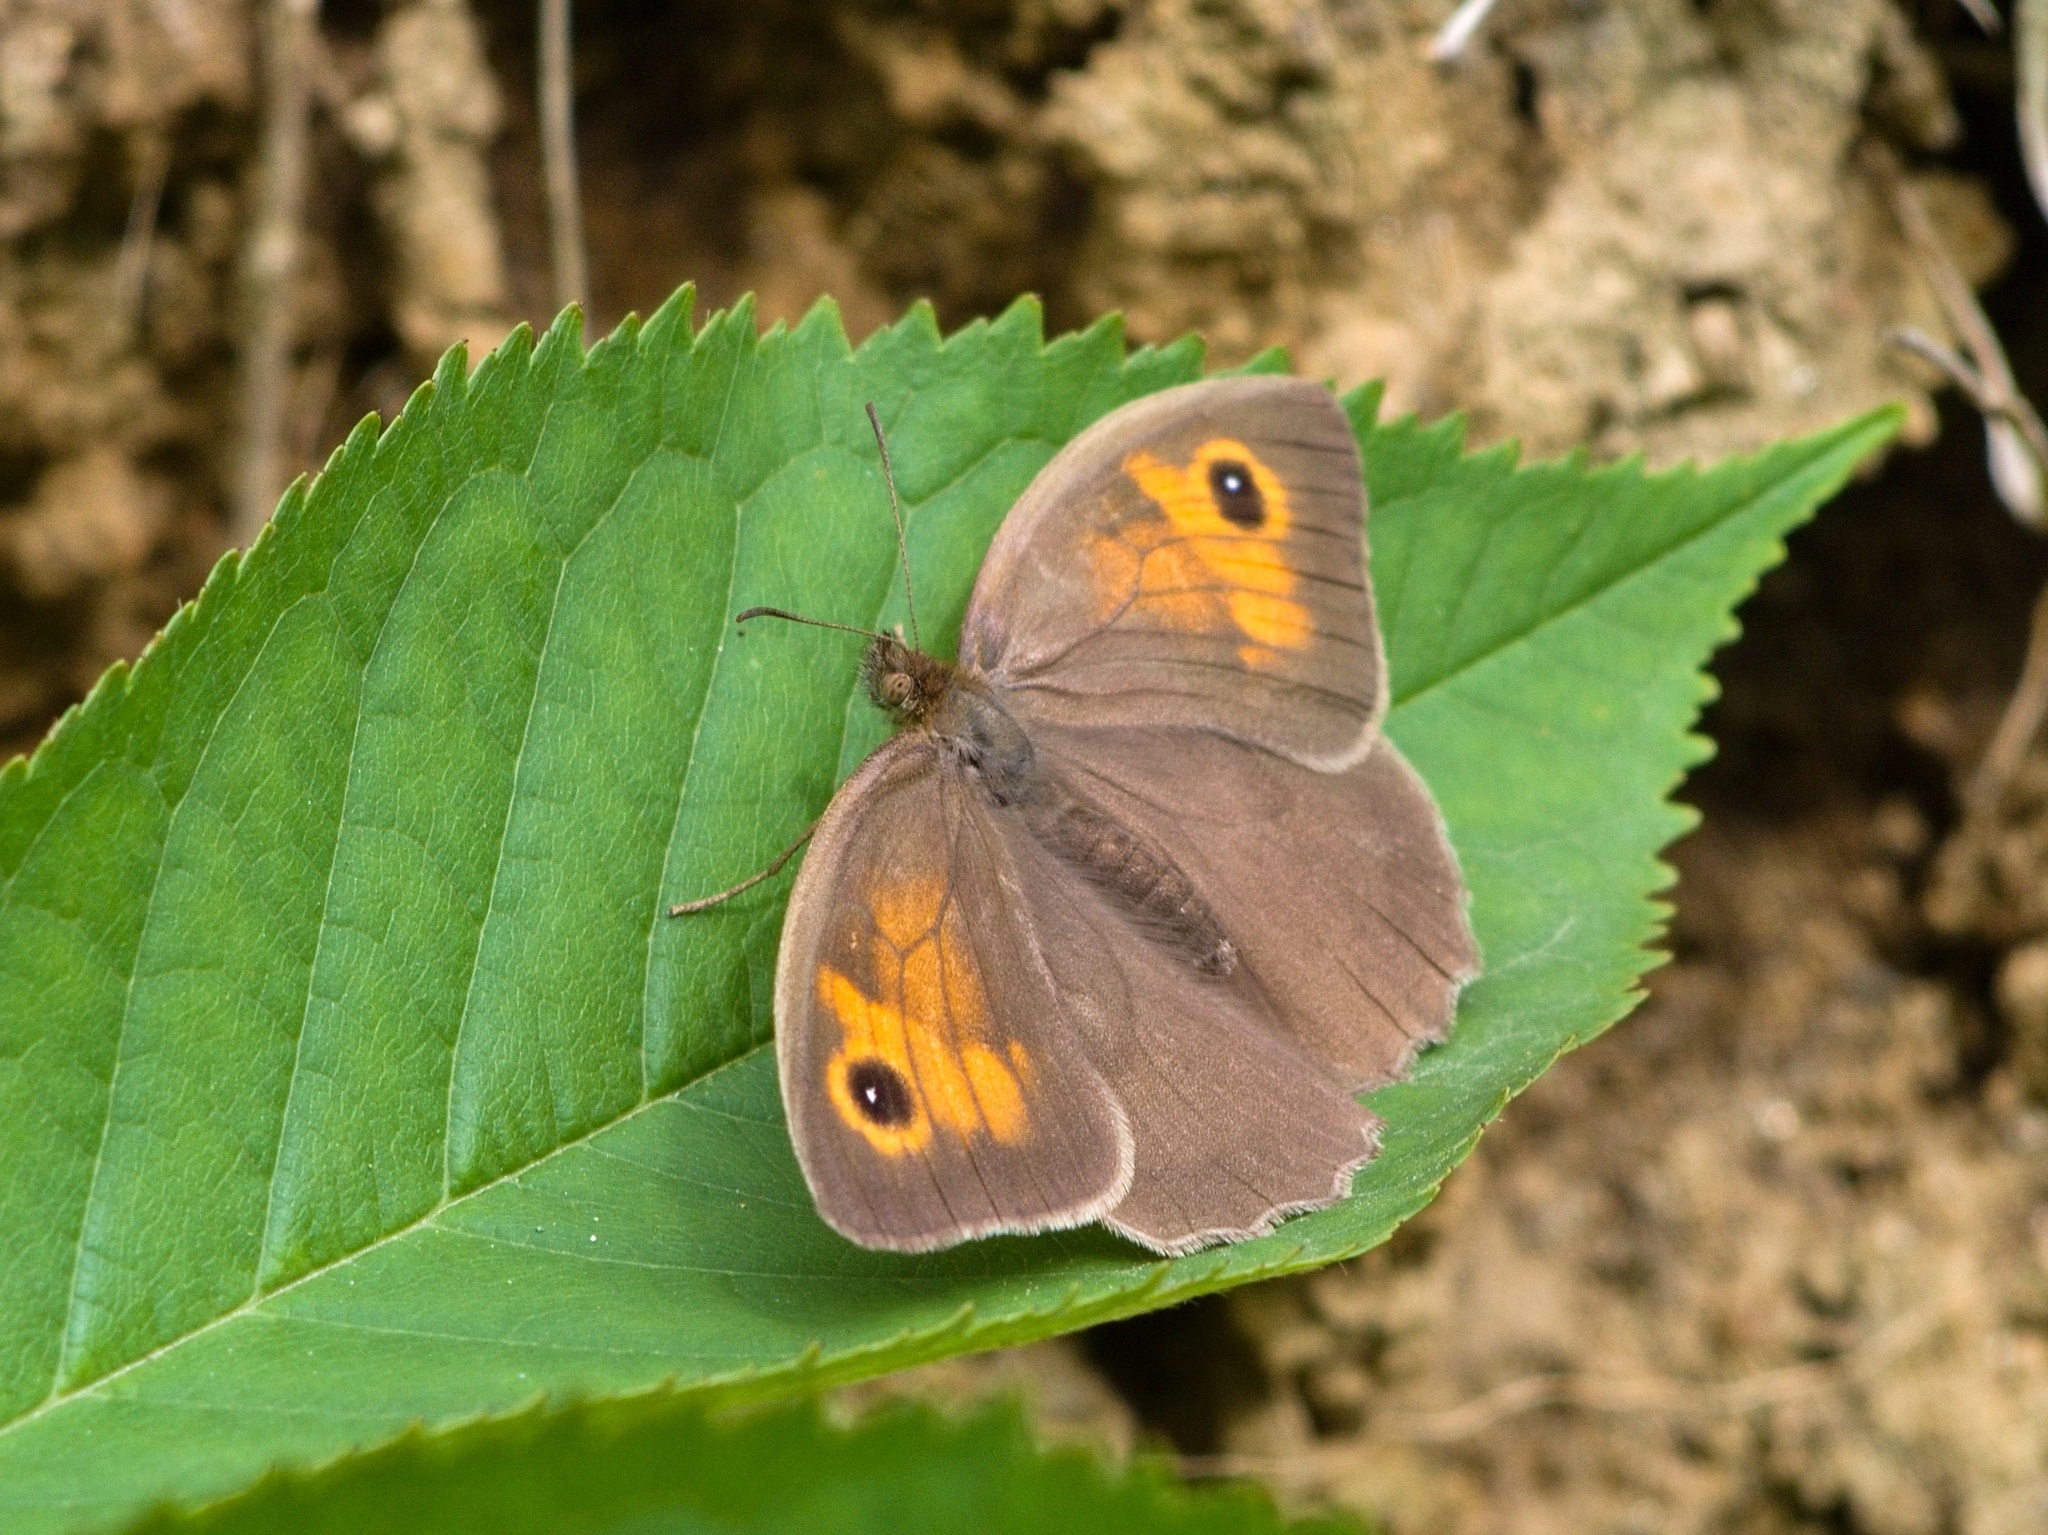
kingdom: Animalia
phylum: Arthropoda
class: Insecta
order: Lepidoptera
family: Nymphalidae
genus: Maniola
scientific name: Maniola jurtina
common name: Meadow brown
